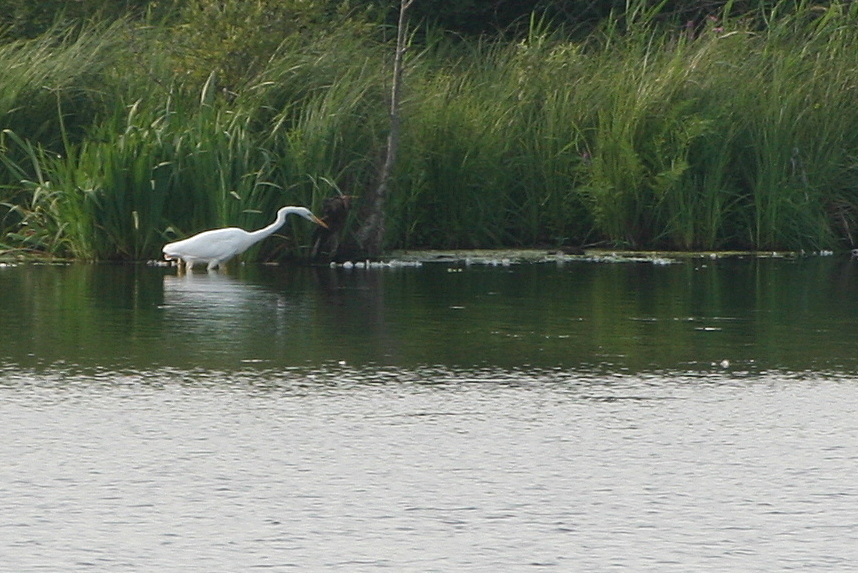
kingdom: Animalia
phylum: Chordata
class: Aves
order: Pelecaniformes
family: Ardeidae
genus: Ardea
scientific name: Ardea alba
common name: Great egret
